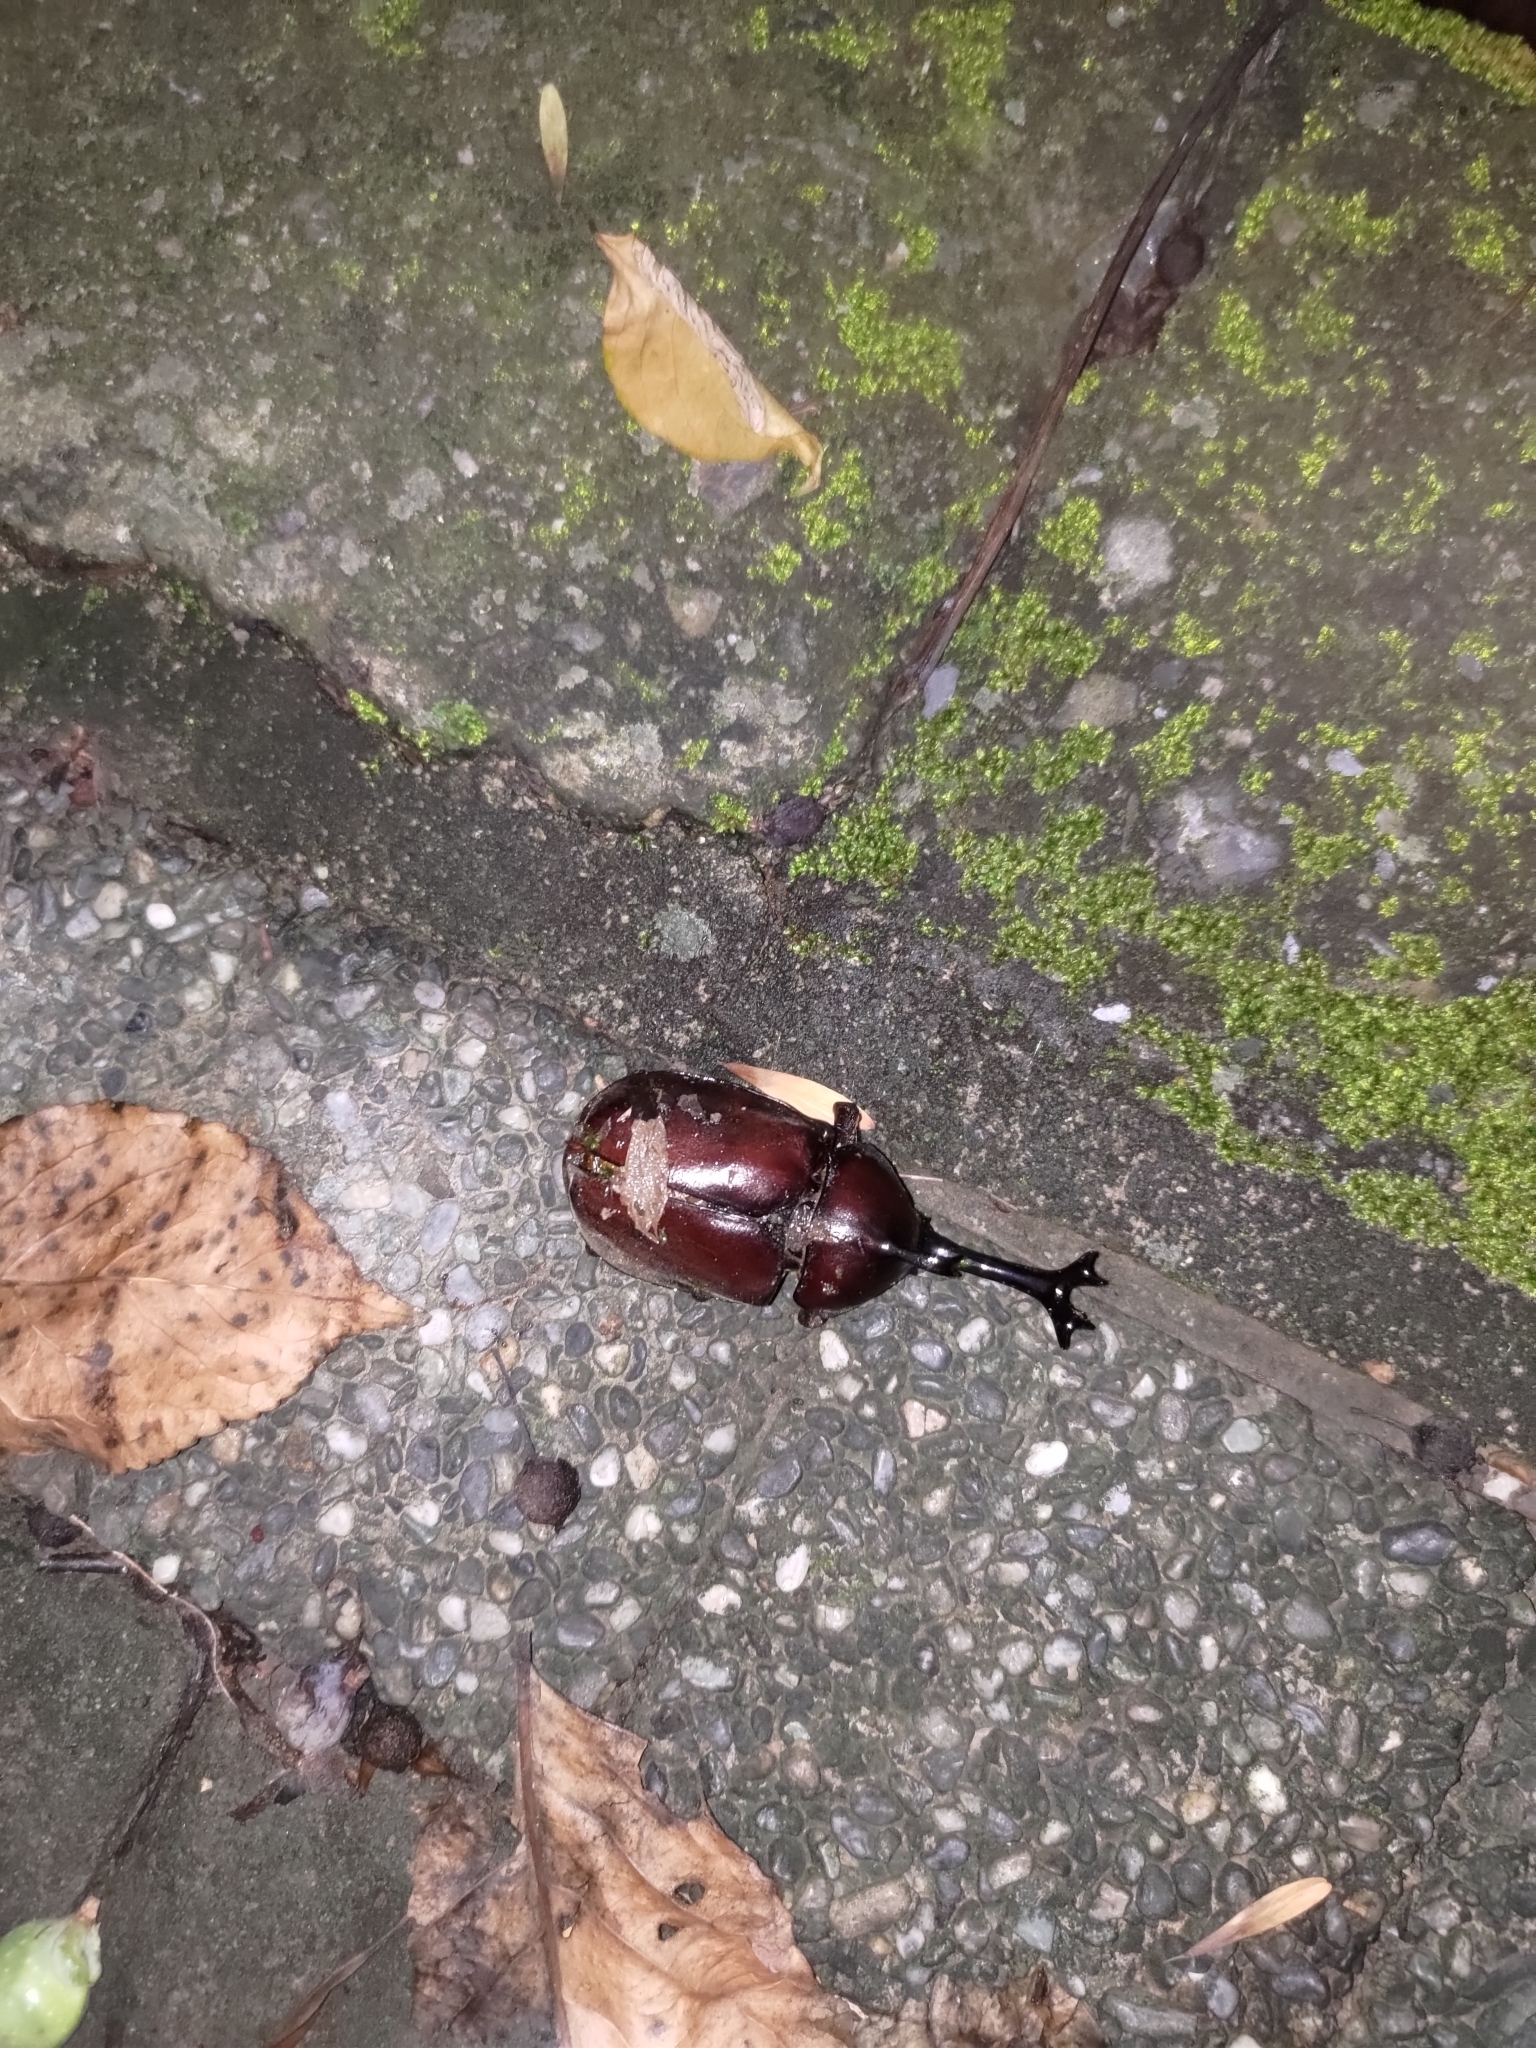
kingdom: Animalia
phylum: Arthropoda
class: Insecta
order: Coleoptera
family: Scarabaeidae
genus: Trypoxylus
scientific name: Trypoxylus dichotomus
